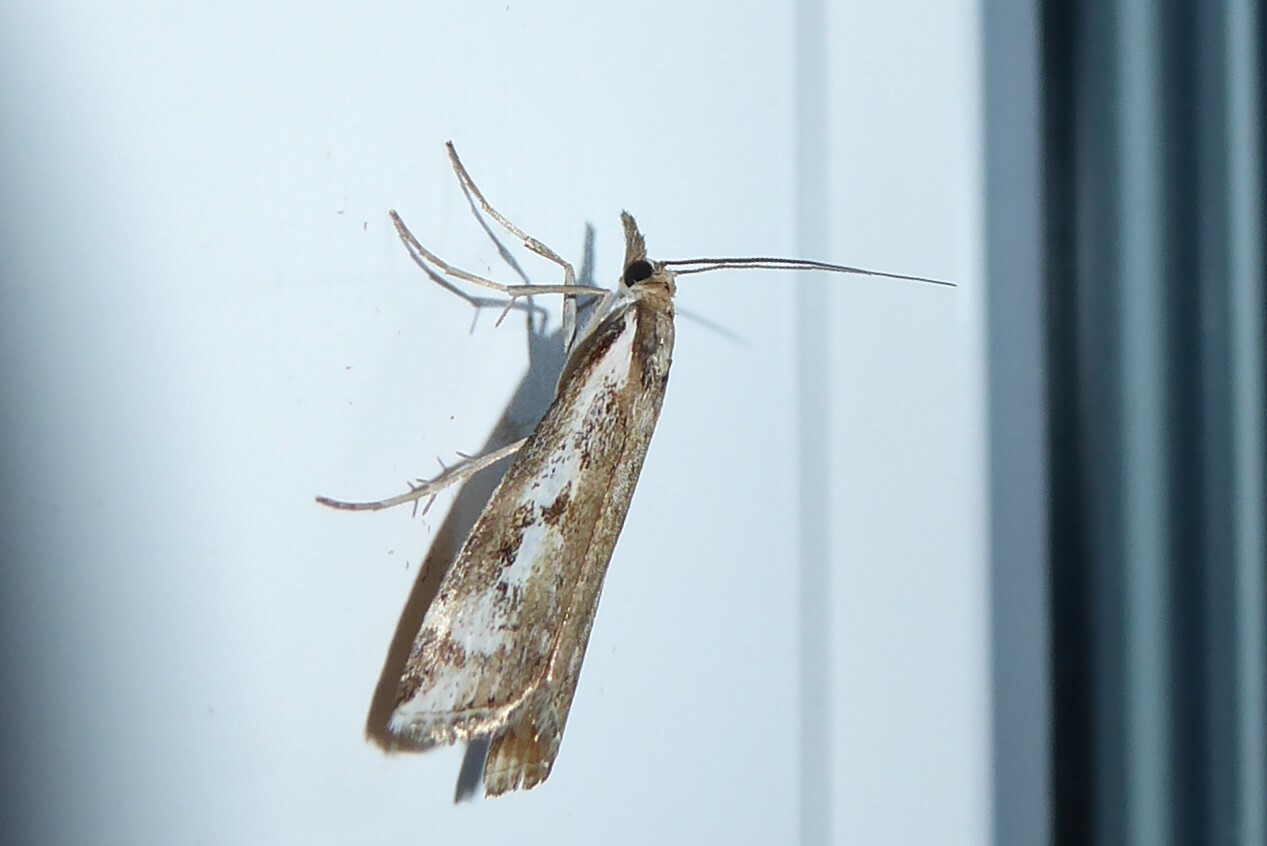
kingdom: Animalia
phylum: Arthropoda
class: Insecta
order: Lepidoptera
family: Crambidae
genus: Orocrambus
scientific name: Orocrambus vulgaris
